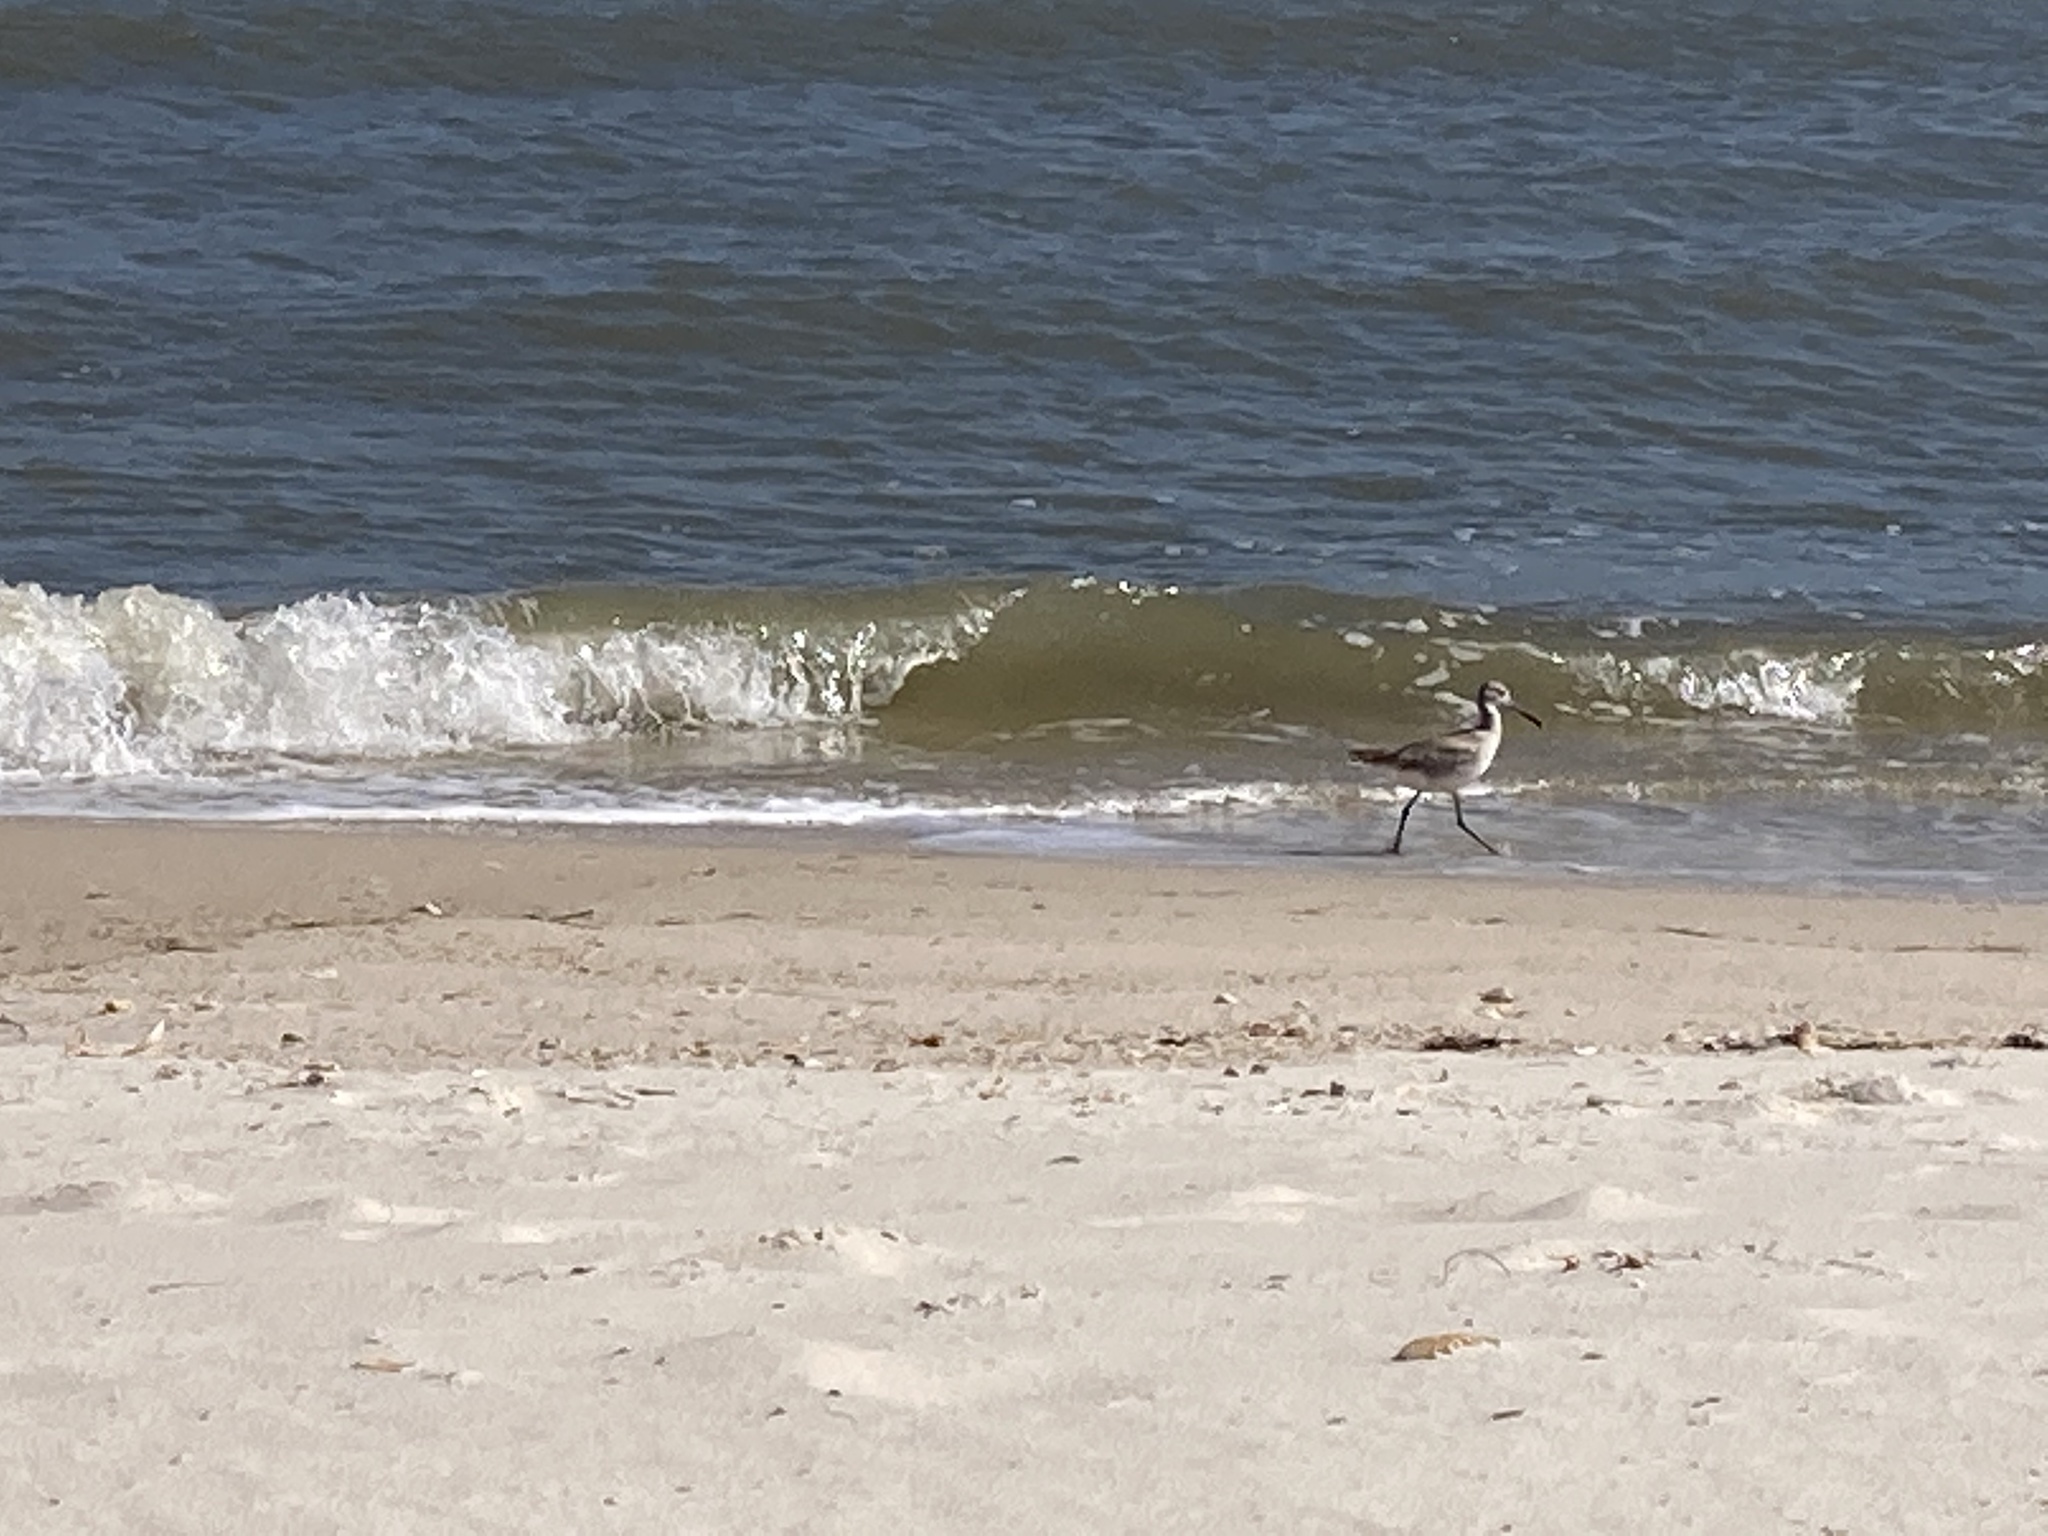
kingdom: Animalia
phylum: Chordata
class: Aves
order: Charadriiformes
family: Scolopacidae
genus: Tringa
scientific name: Tringa semipalmata
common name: Willet
